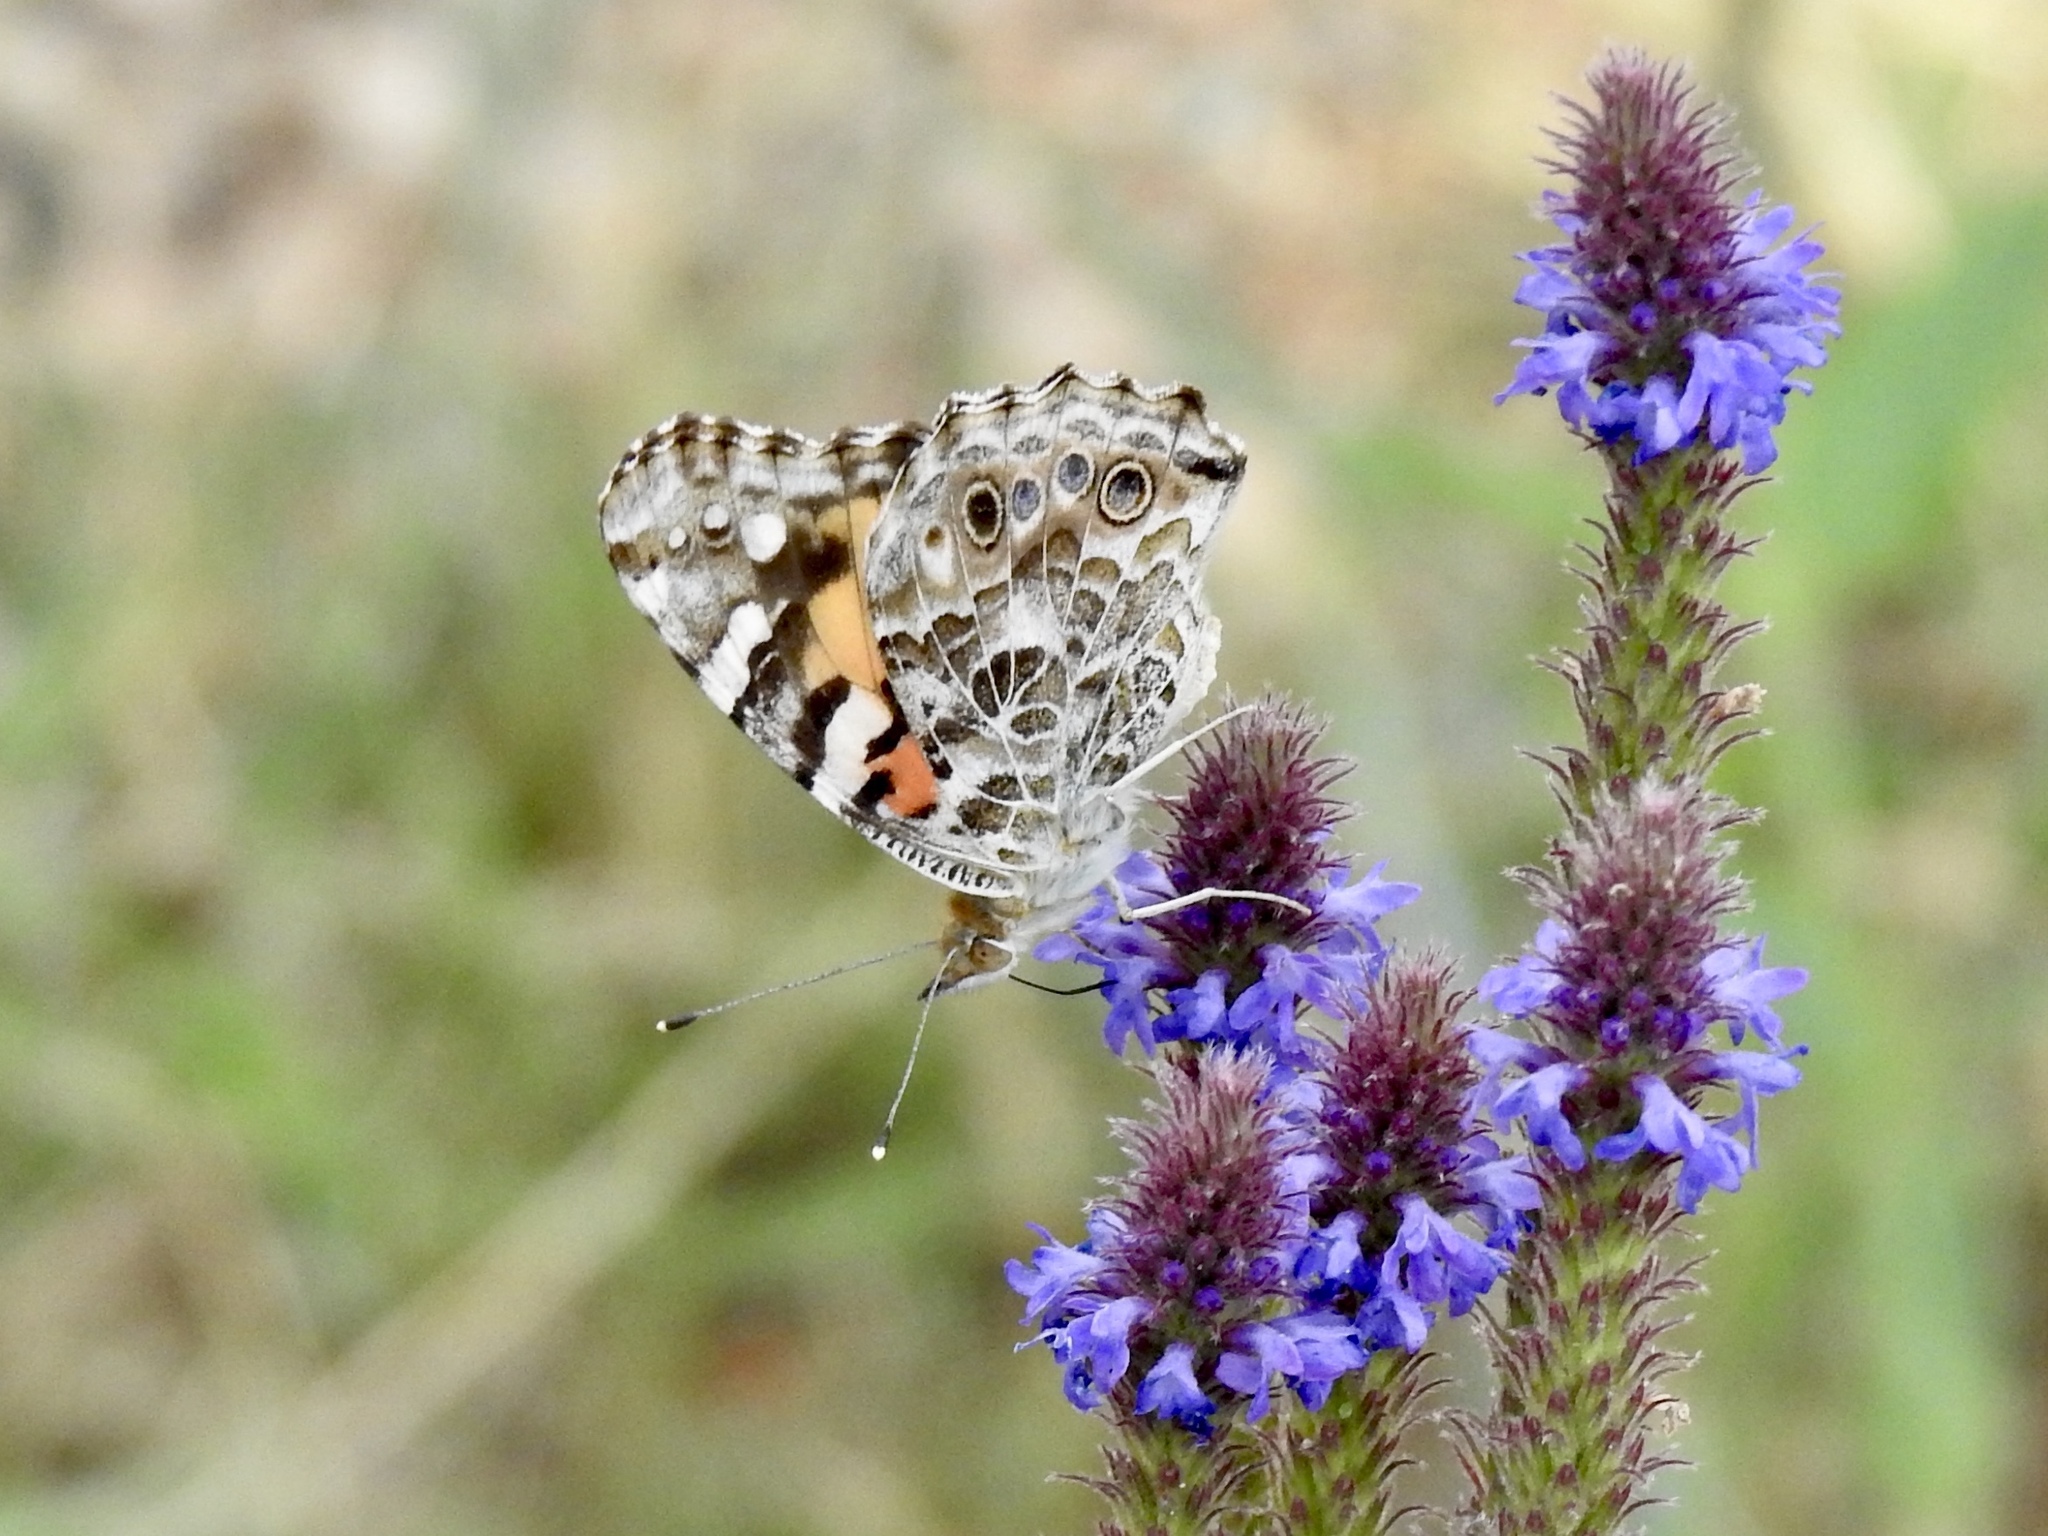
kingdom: Animalia
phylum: Arthropoda
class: Insecta
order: Lepidoptera
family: Nymphalidae
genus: Vanessa
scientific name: Vanessa cardui
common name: Painted lady
